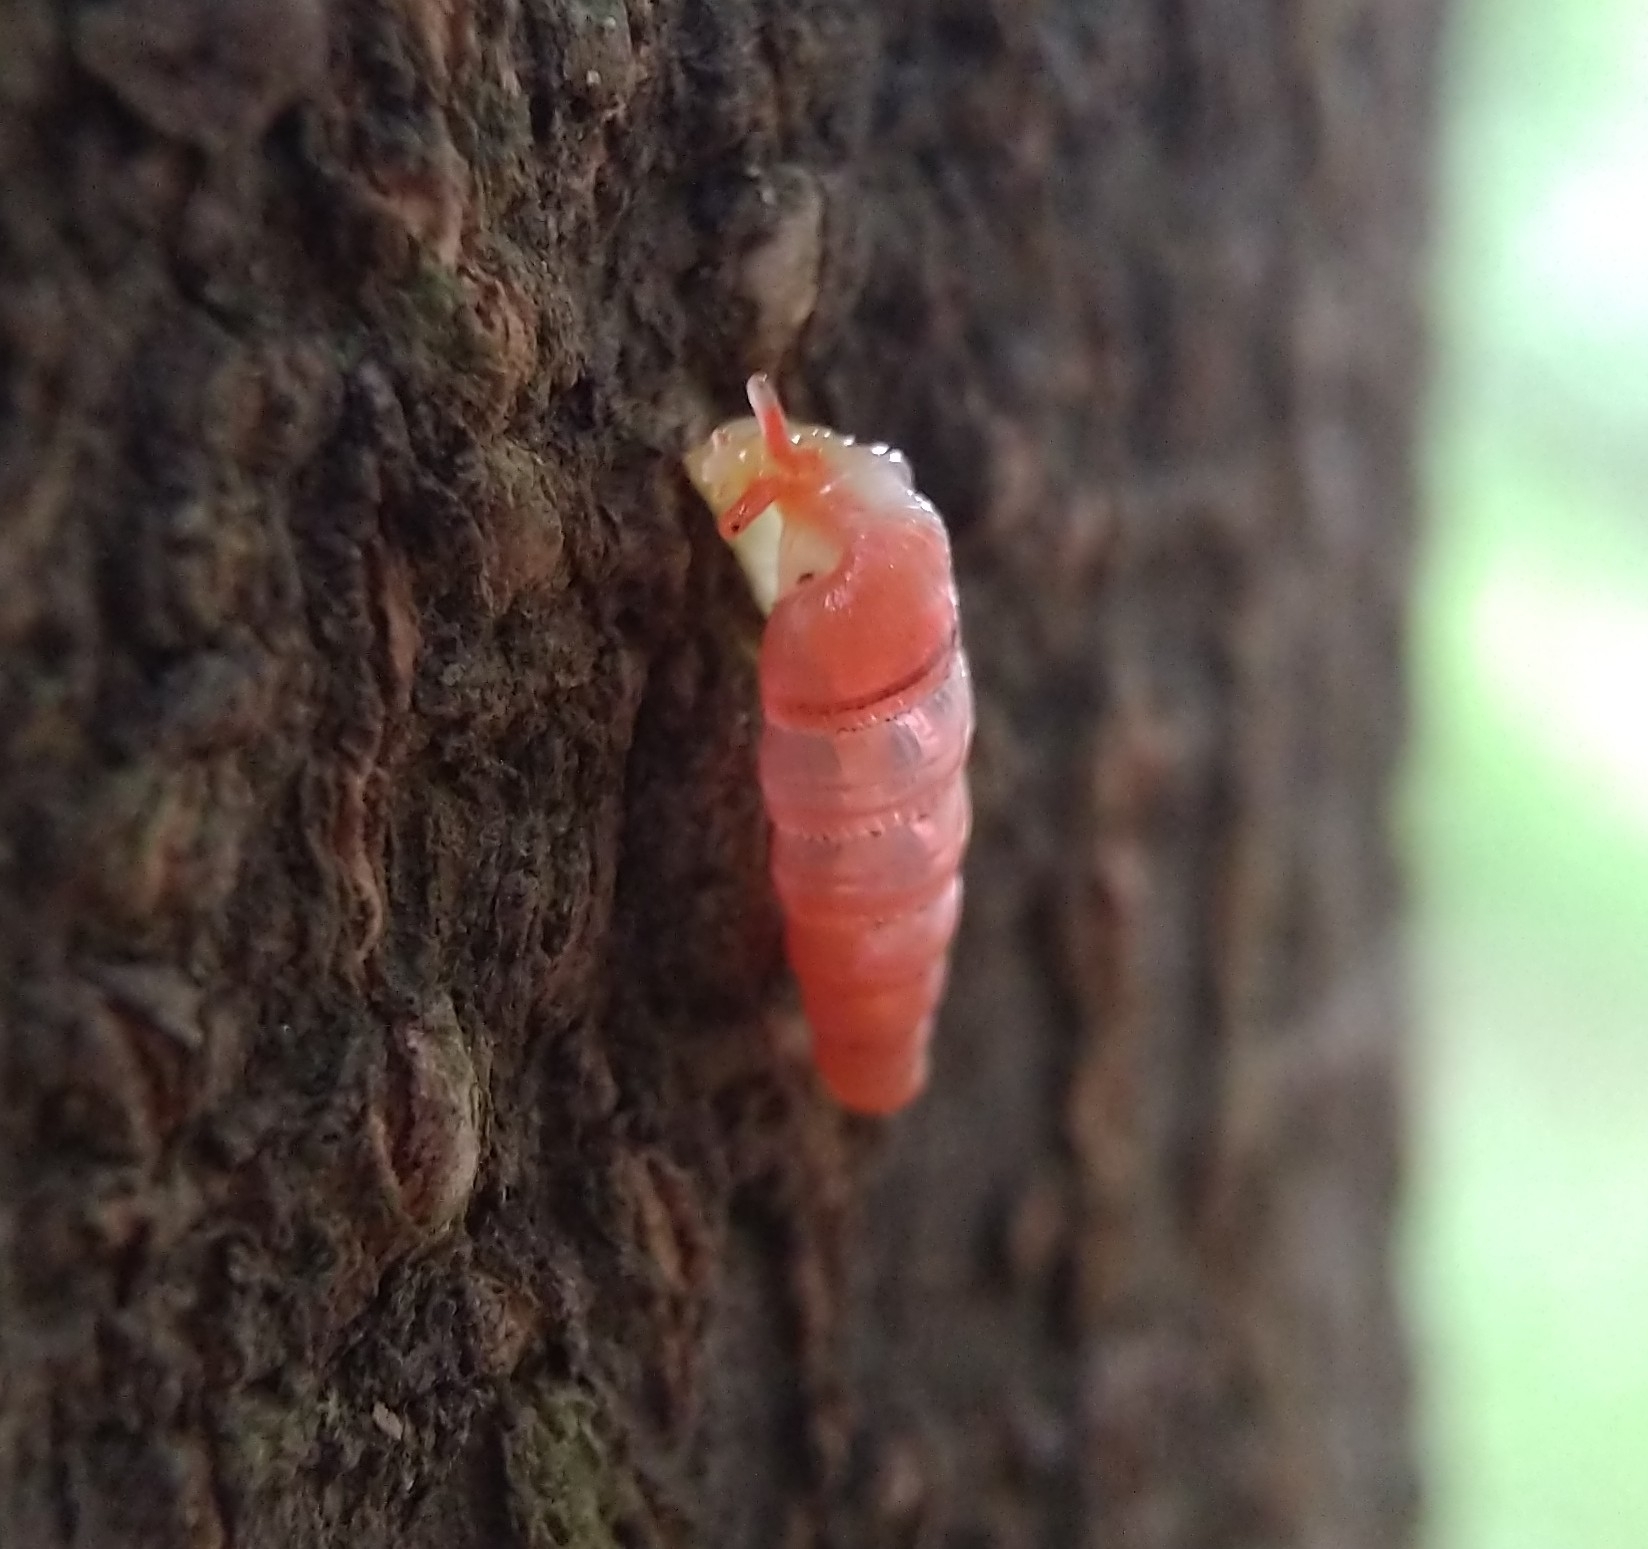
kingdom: Animalia
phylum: Mollusca
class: Gastropoda
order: Stylommatophora
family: Streptaxidae
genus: Gulella
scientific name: Gulella bicolor
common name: Snail
